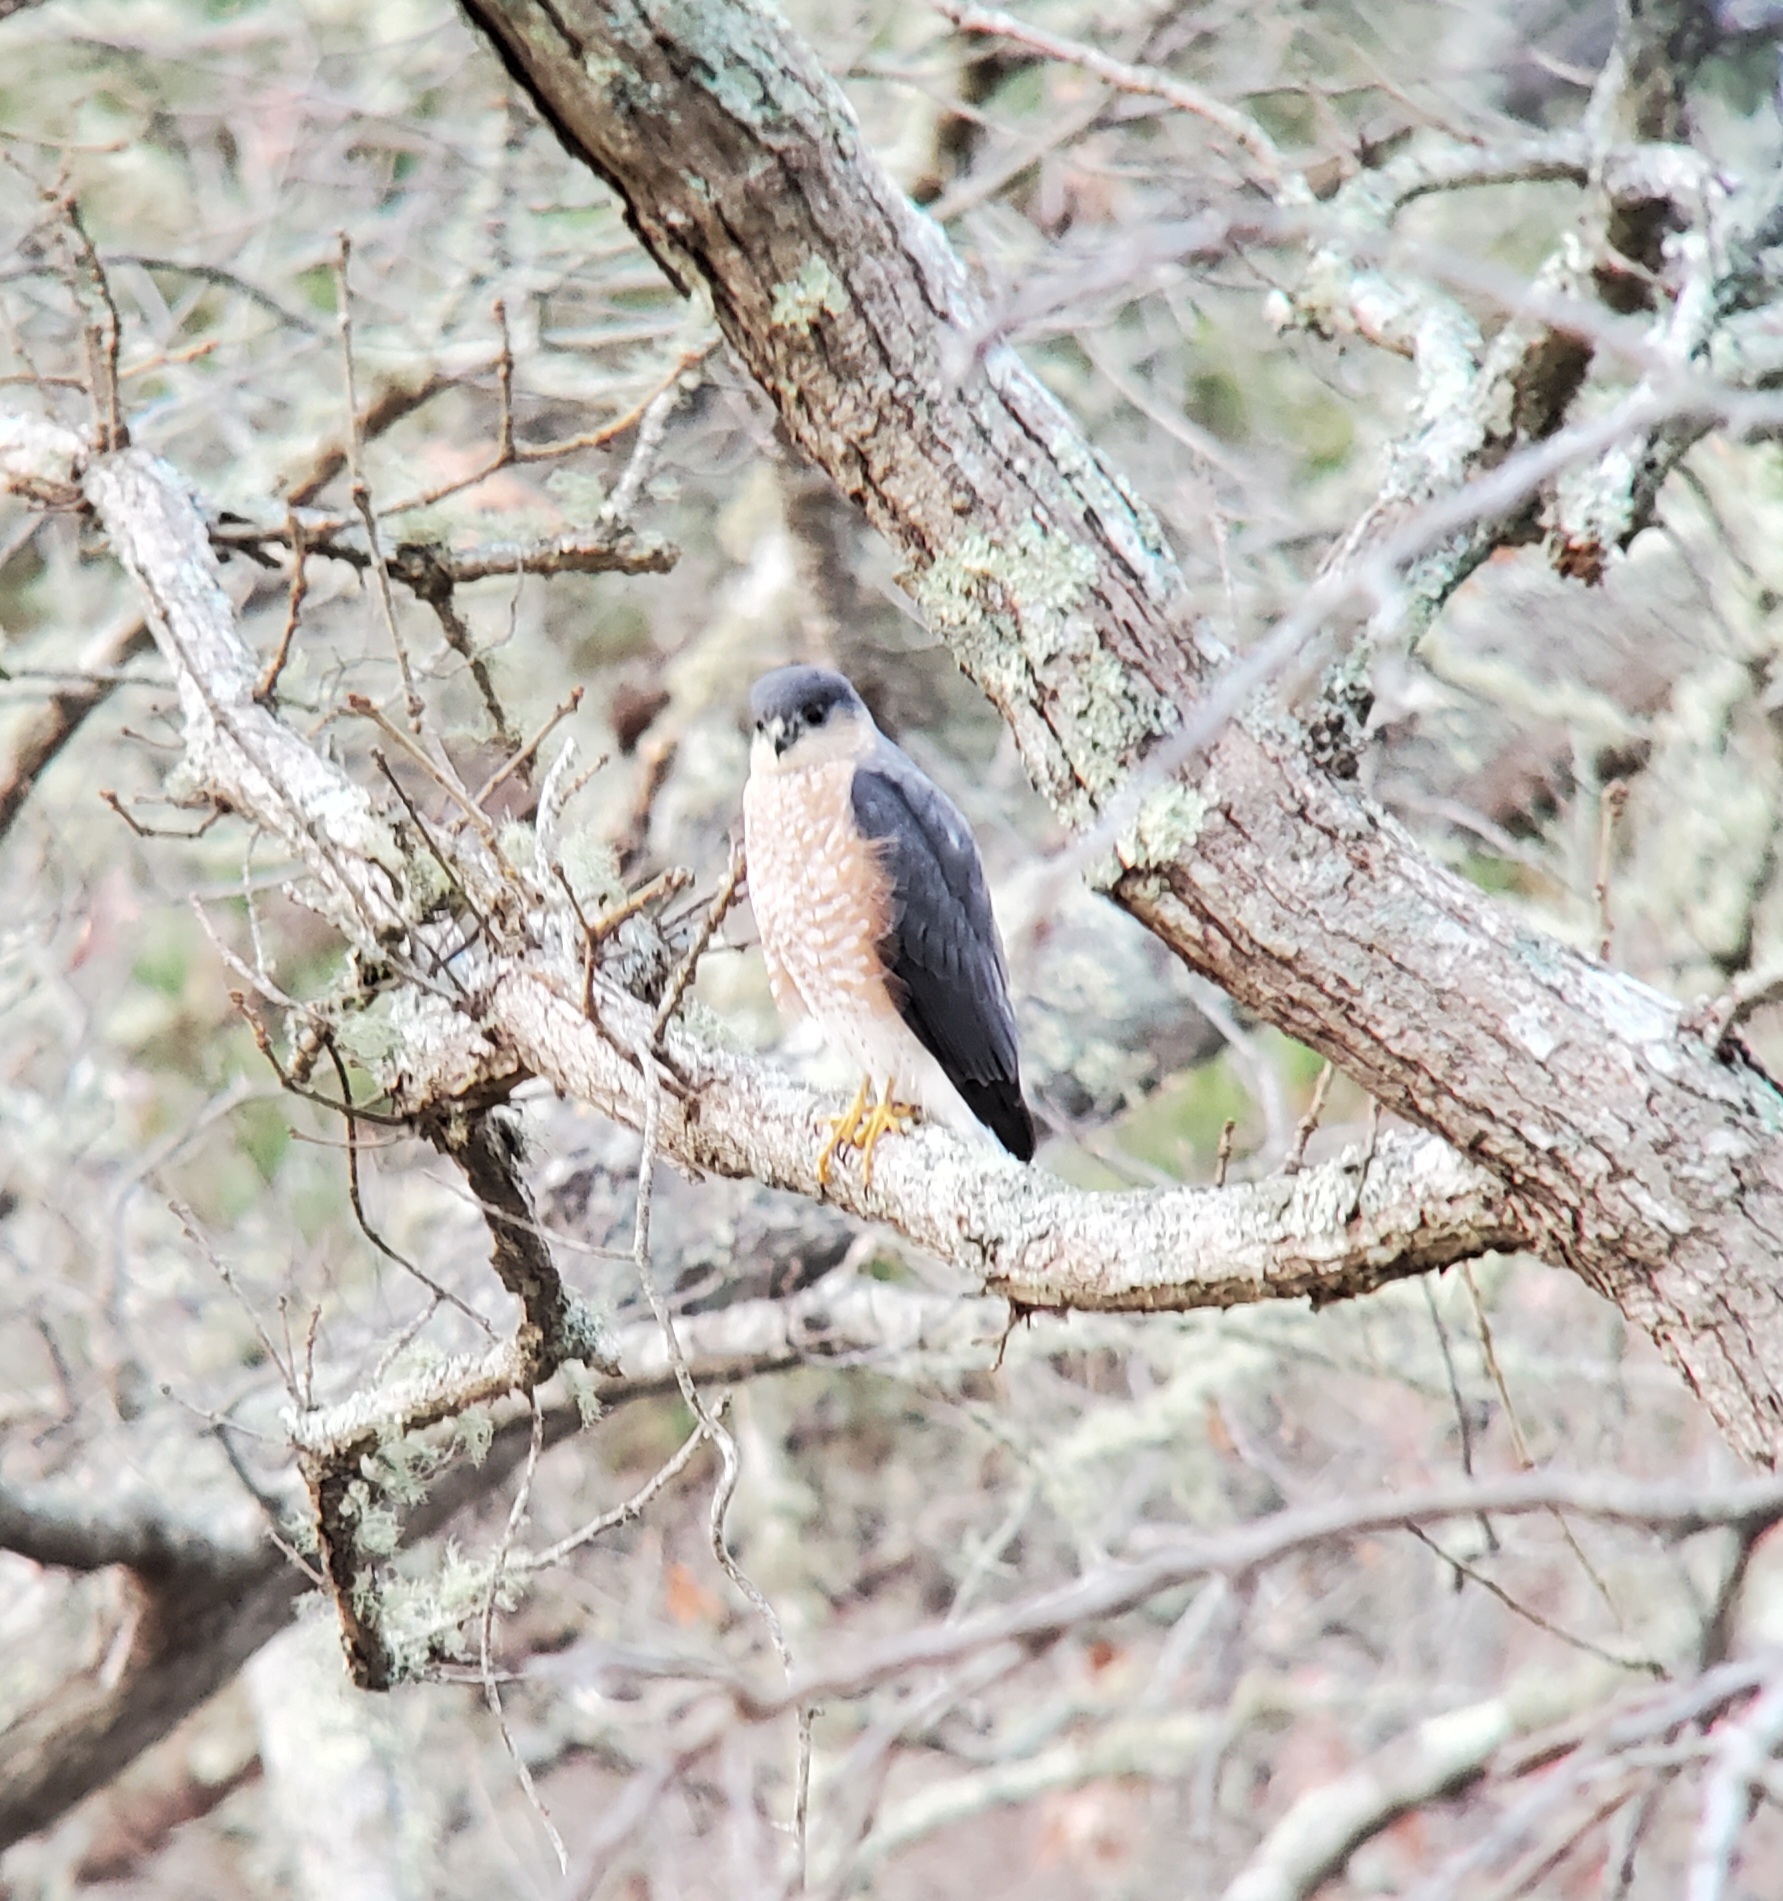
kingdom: Animalia
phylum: Chordata
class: Aves
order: Accipitriformes
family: Accipitridae
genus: Accipiter
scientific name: Accipiter cooperii
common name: Cooper's hawk
